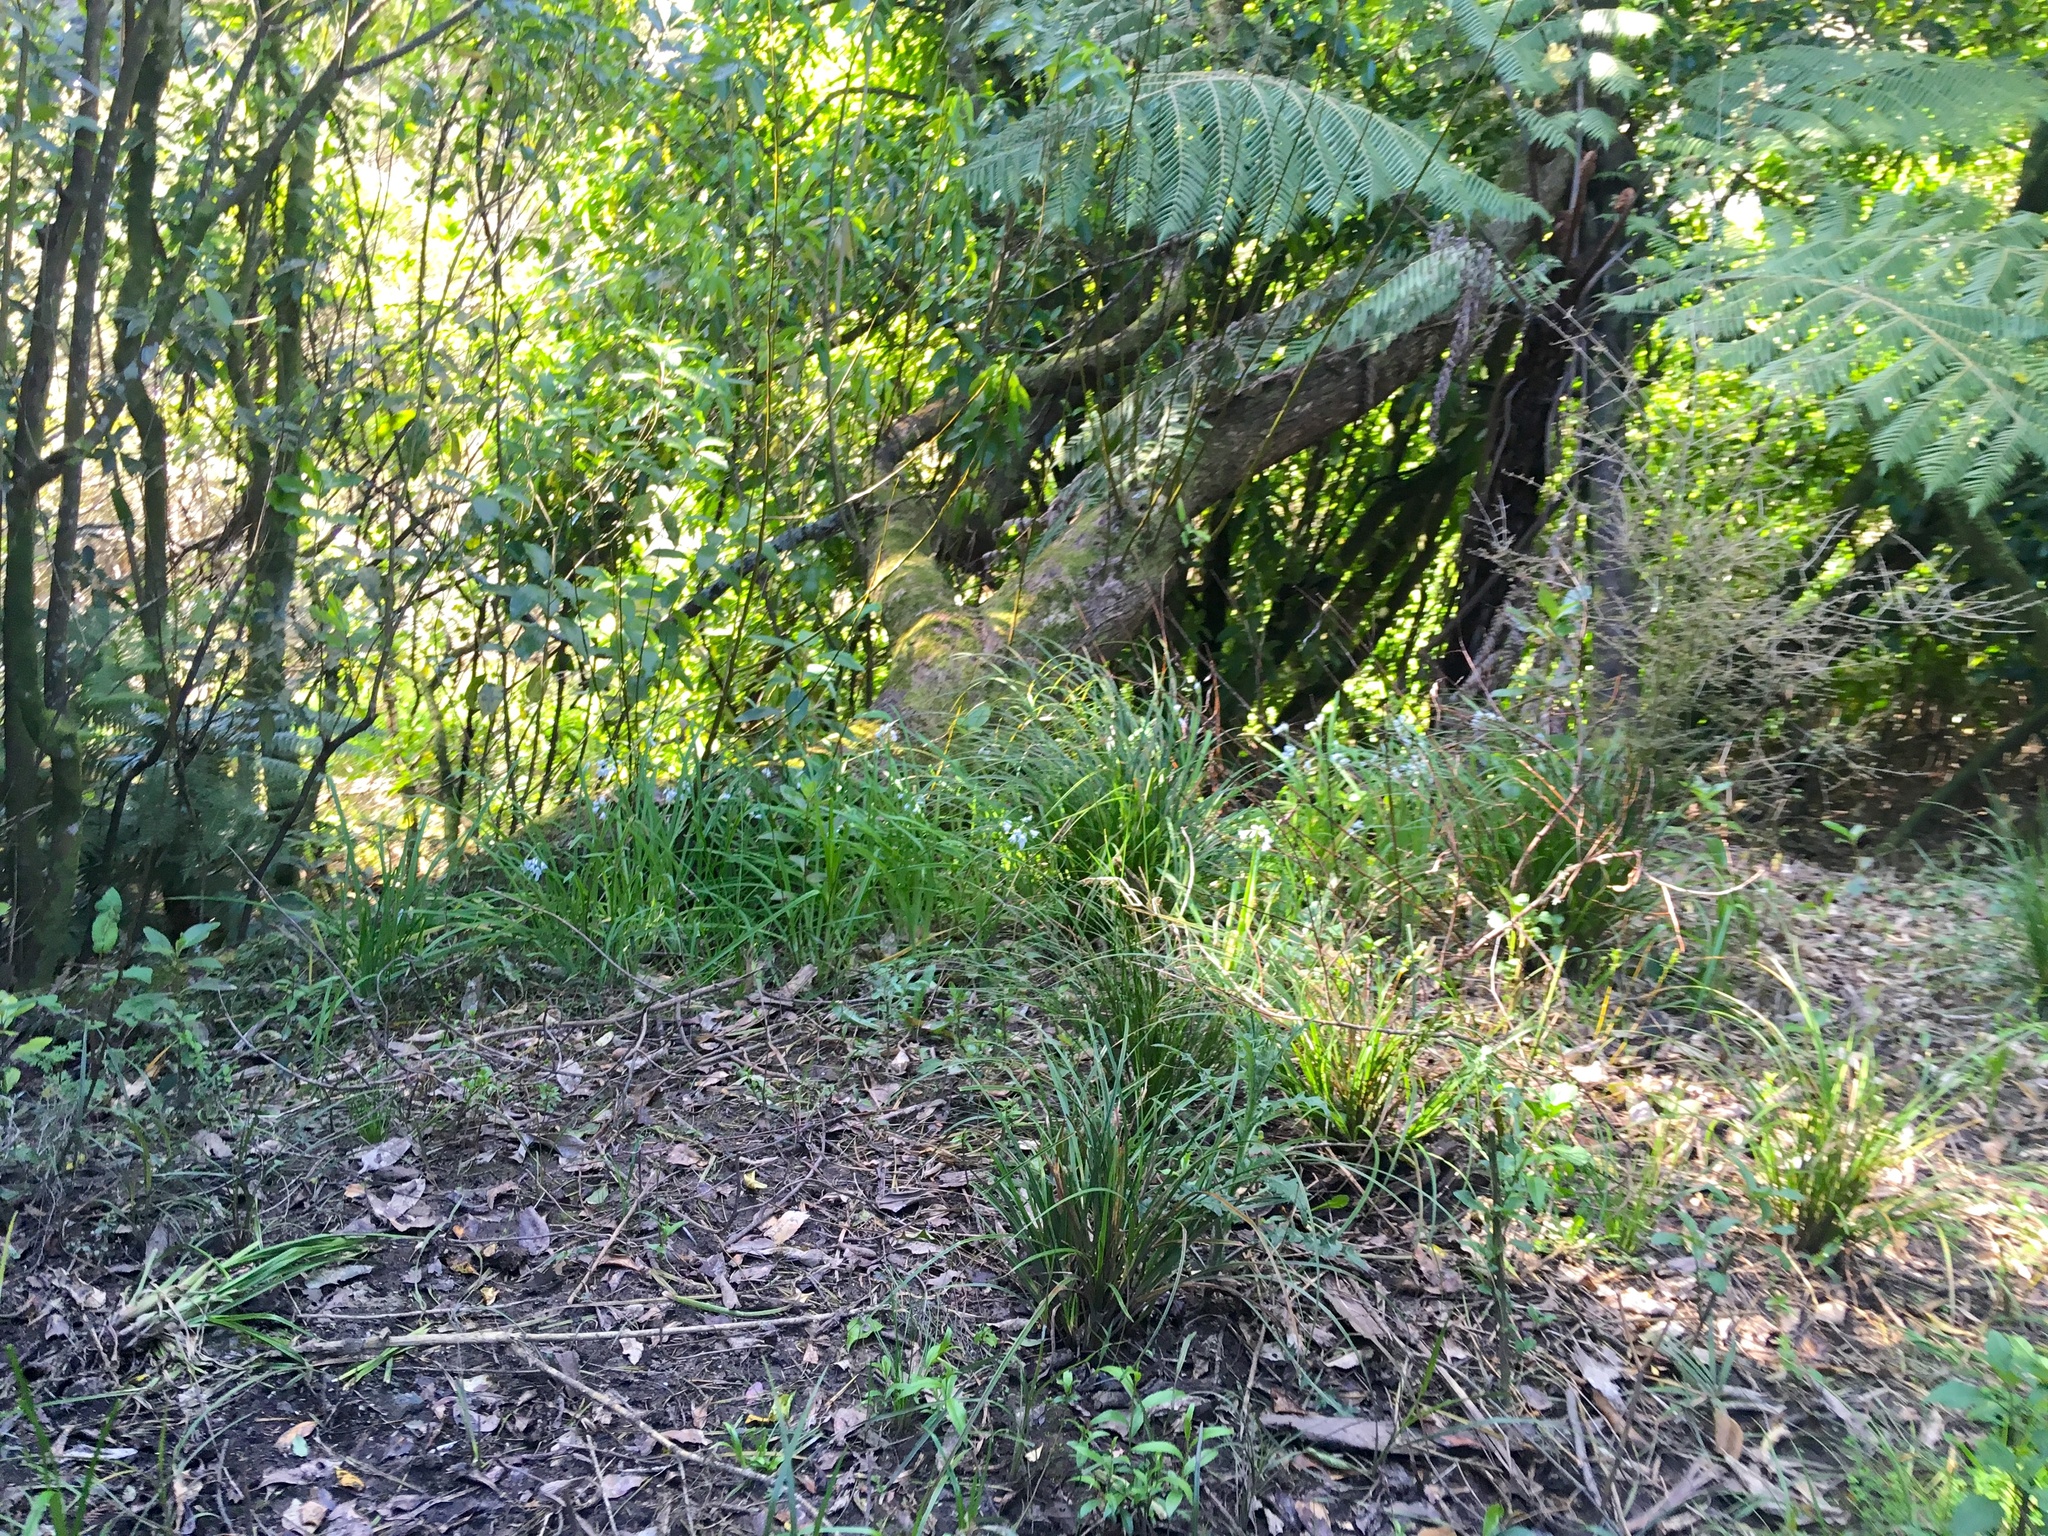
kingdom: Plantae
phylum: Tracheophyta
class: Magnoliopsida
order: Malpighiales
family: Salicaceae
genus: Salix
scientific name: Salix fragilis
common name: Crack willow
